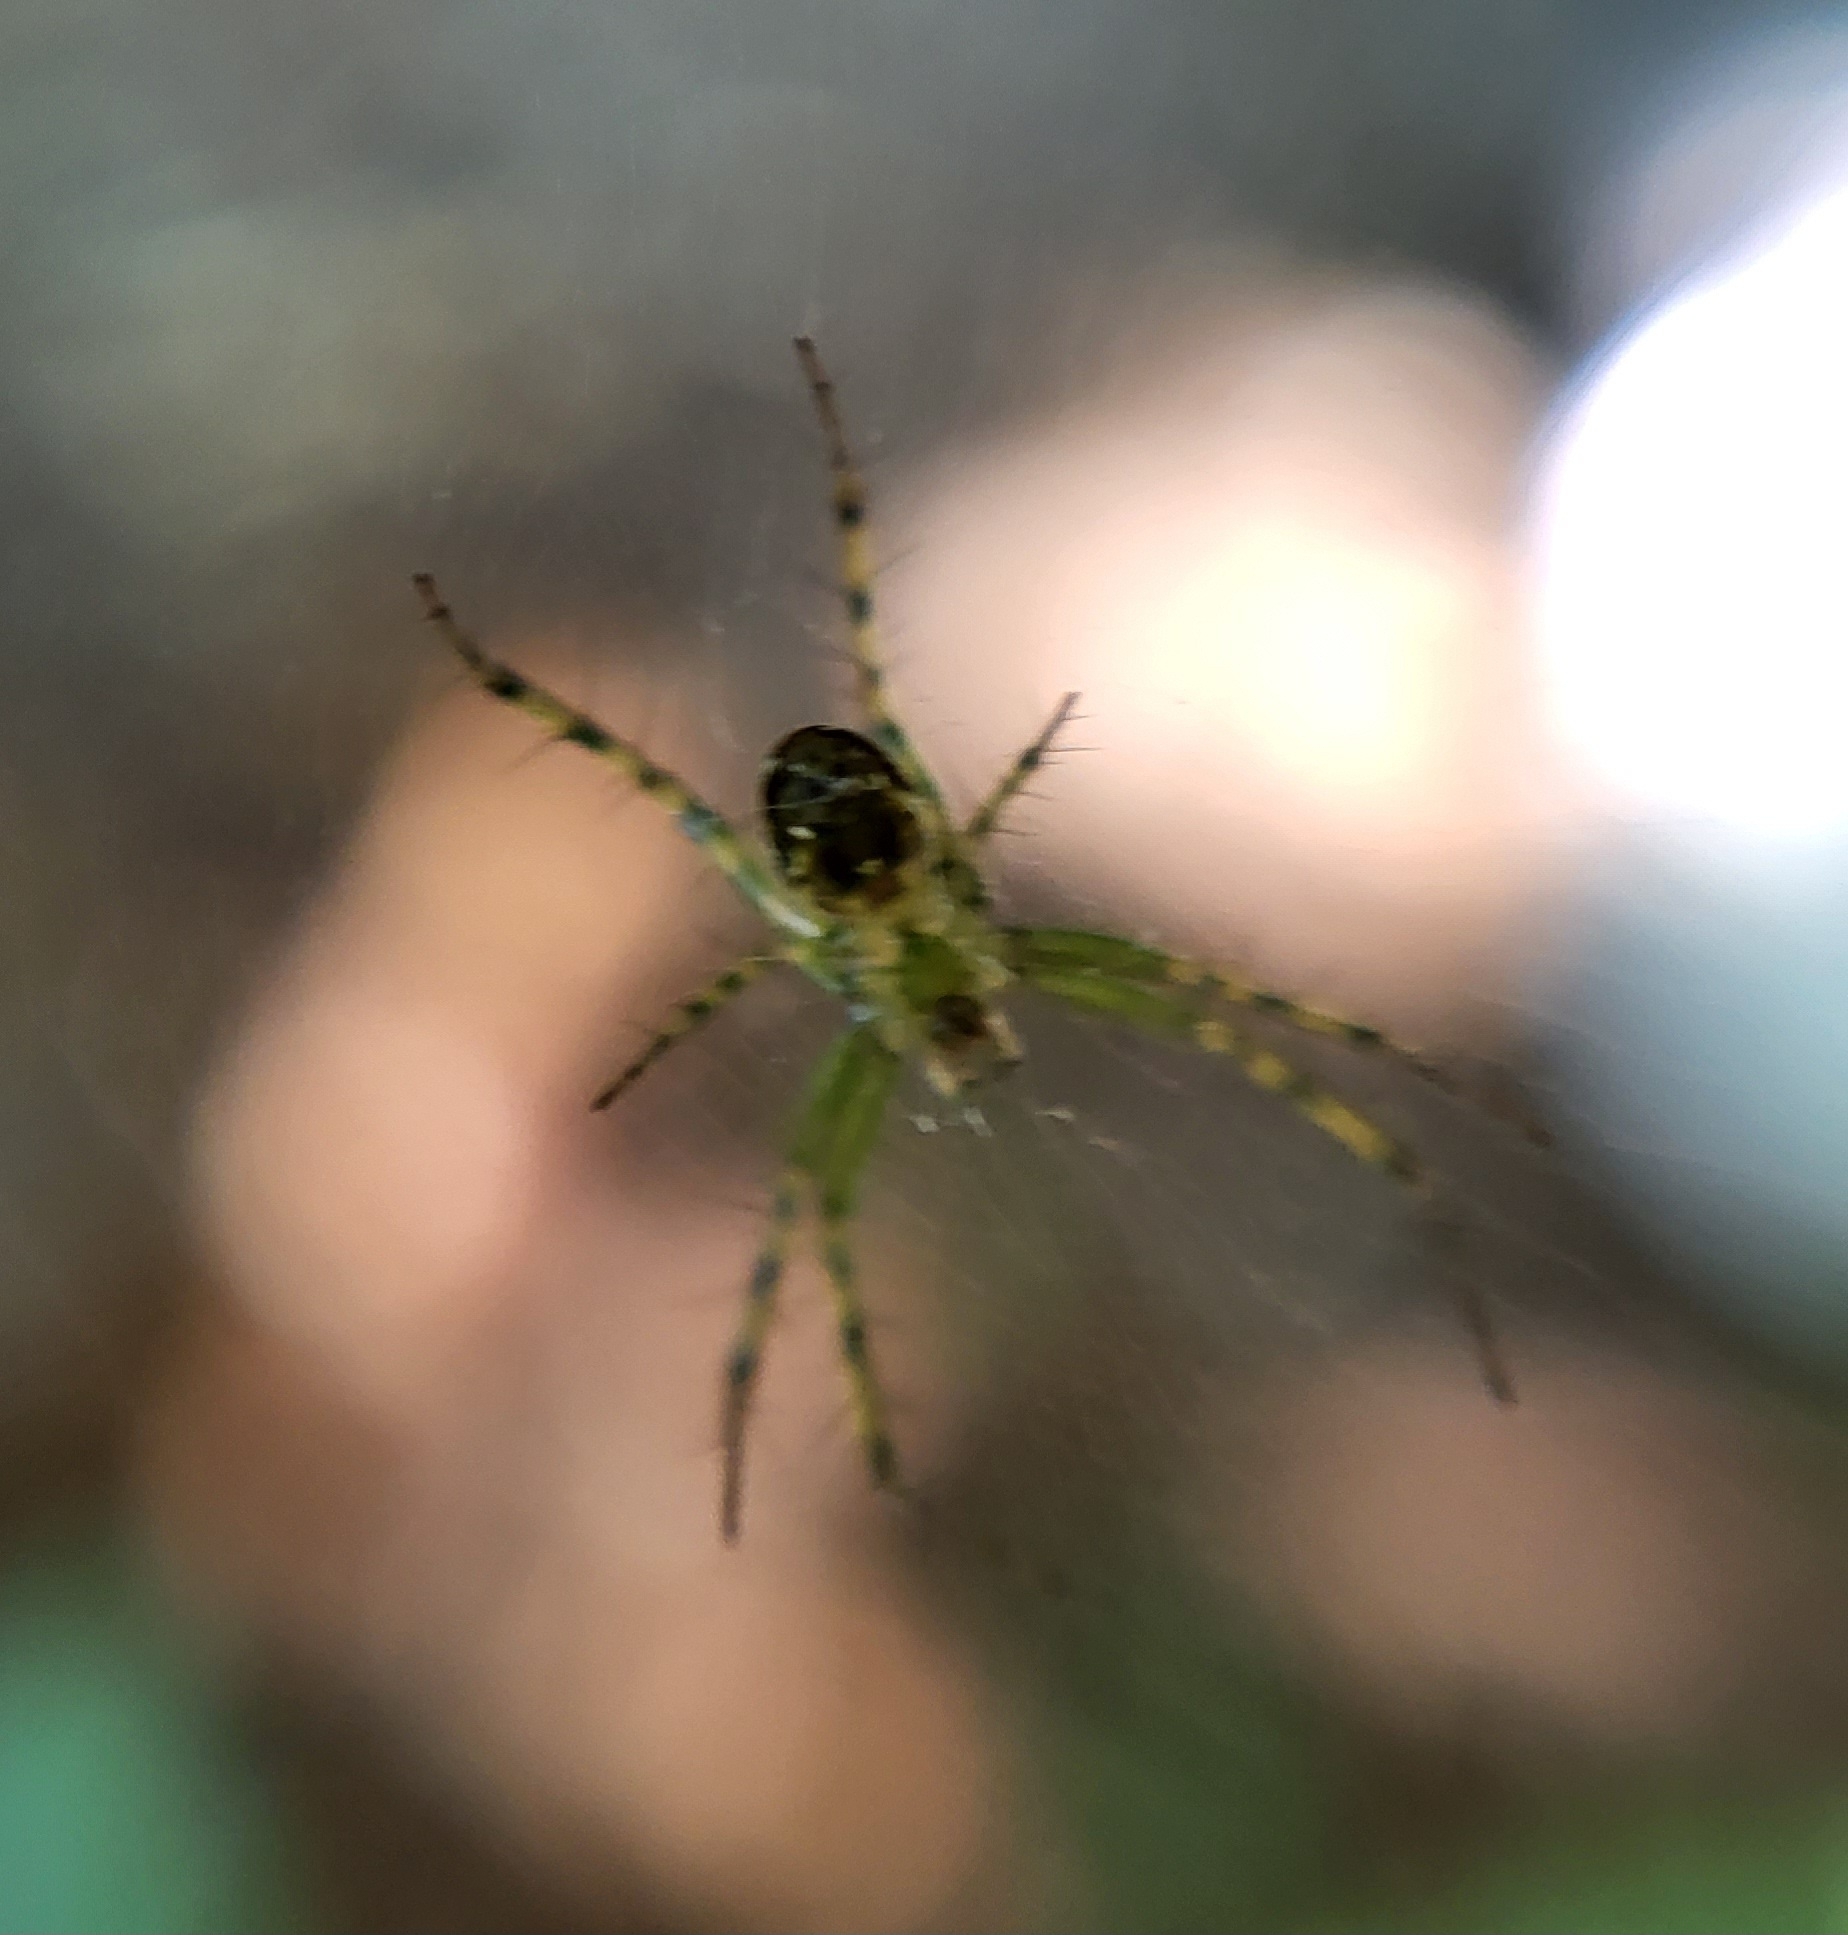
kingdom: Animalia
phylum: Arthropoda
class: Arachnida
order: Araneae
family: Araneidae
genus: Mangora
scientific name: Mangora spiculata
